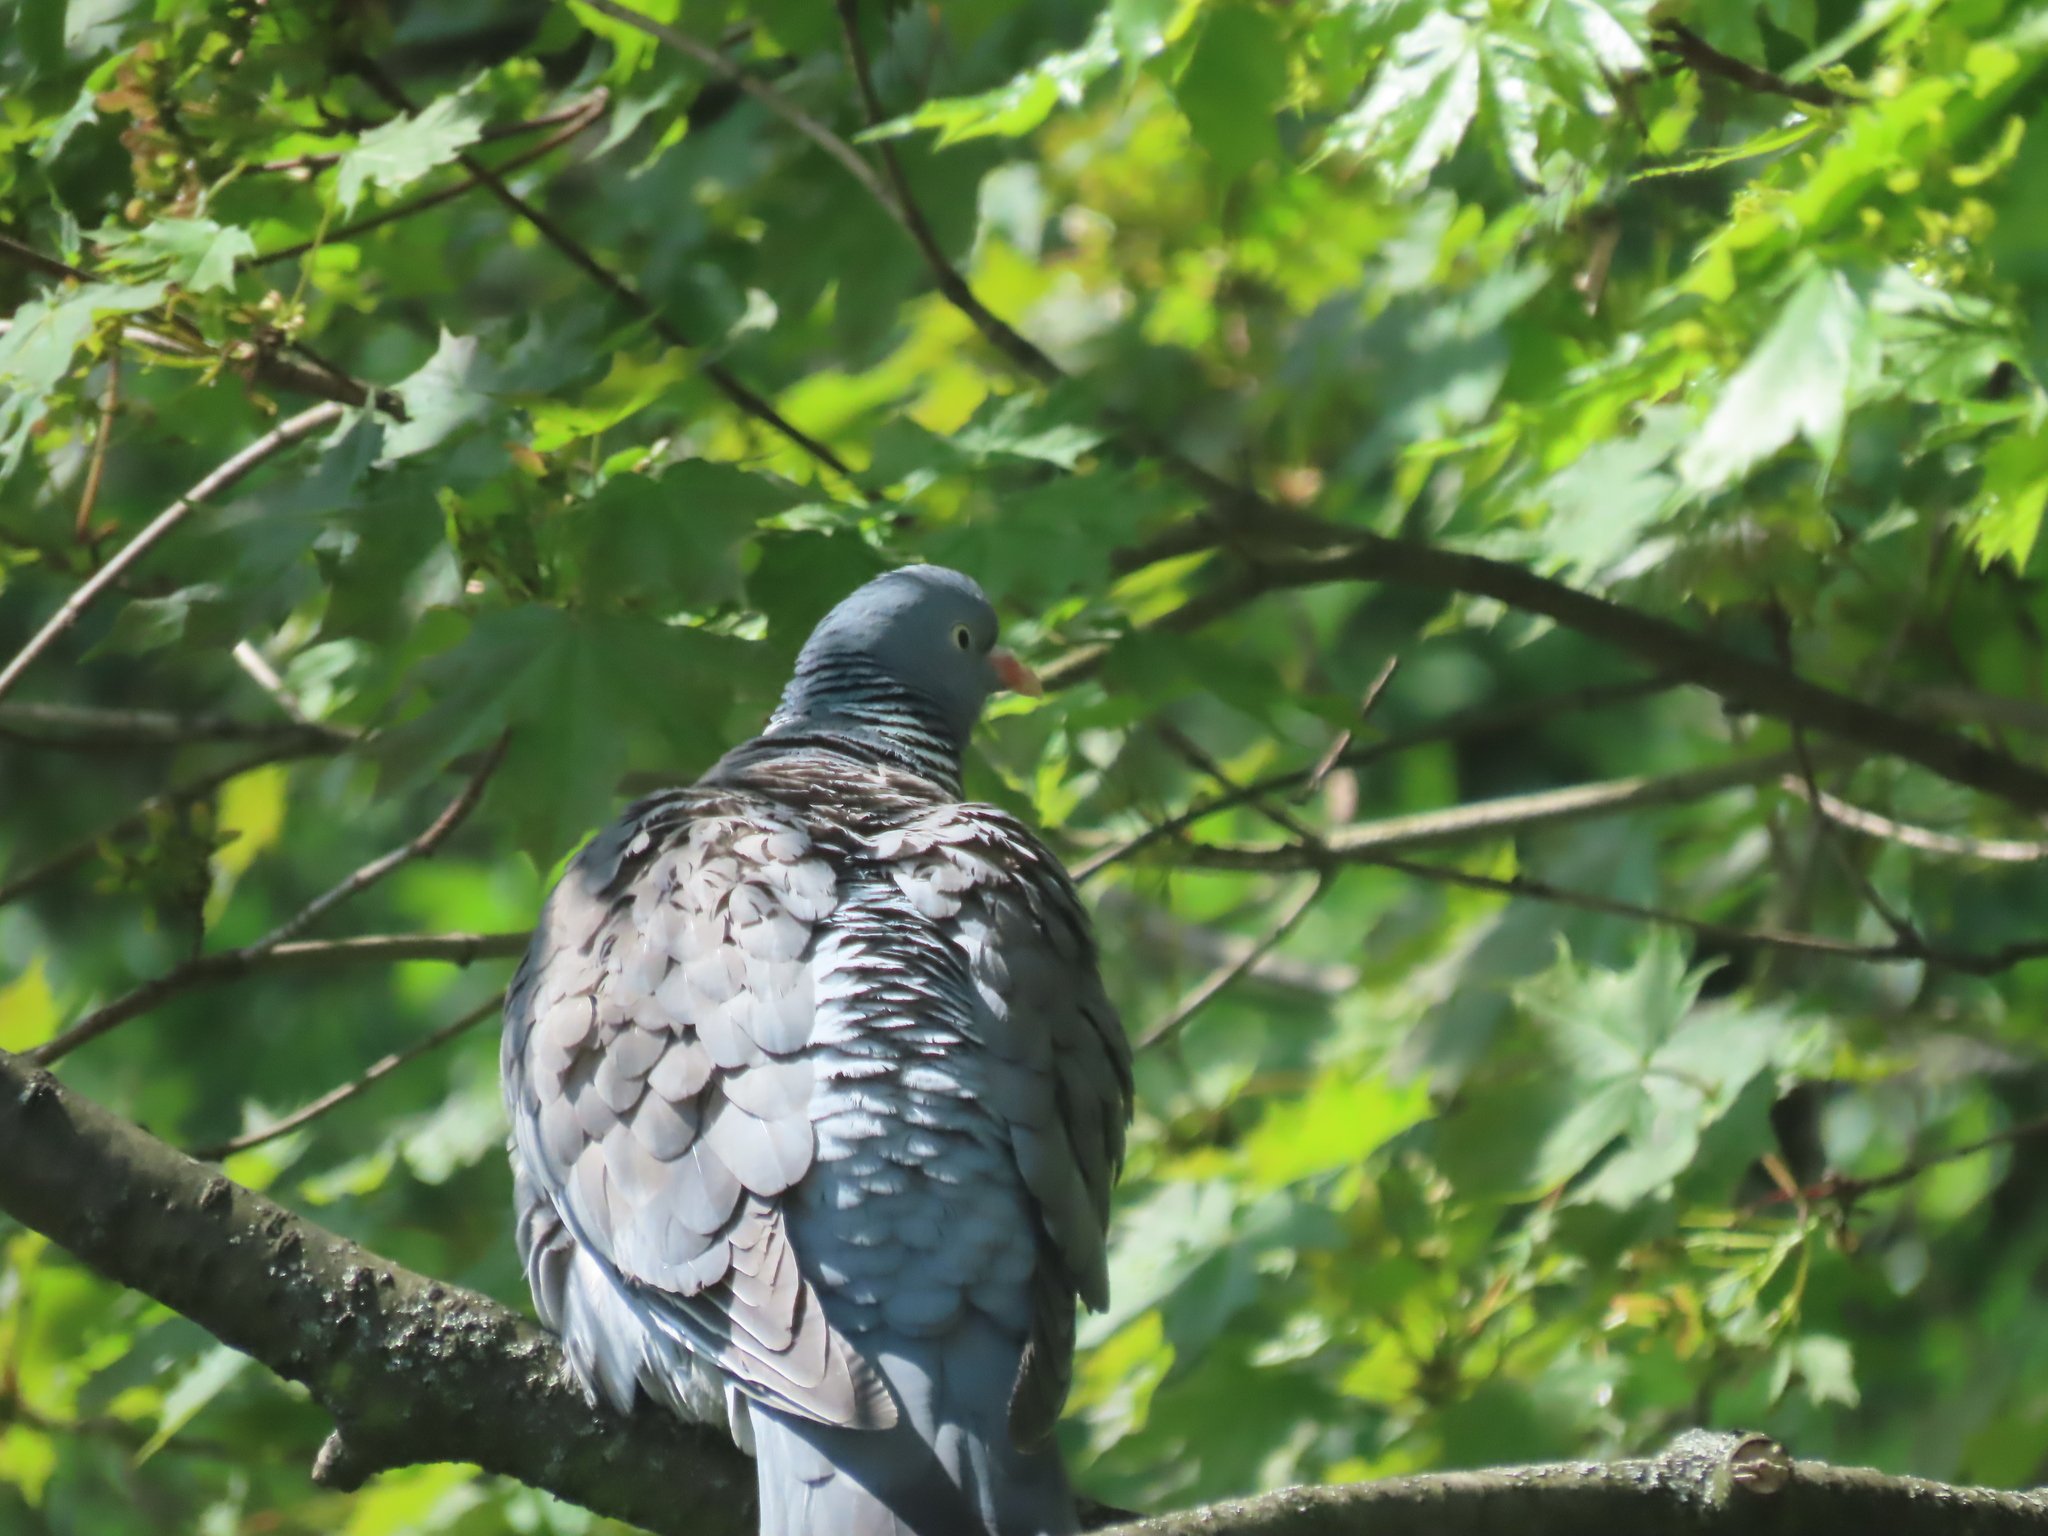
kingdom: Animalia
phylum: Chordata
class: Aves
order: Columbiformes
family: Columbidae
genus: Columba
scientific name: Columba palumbus
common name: Common wood pigeon
